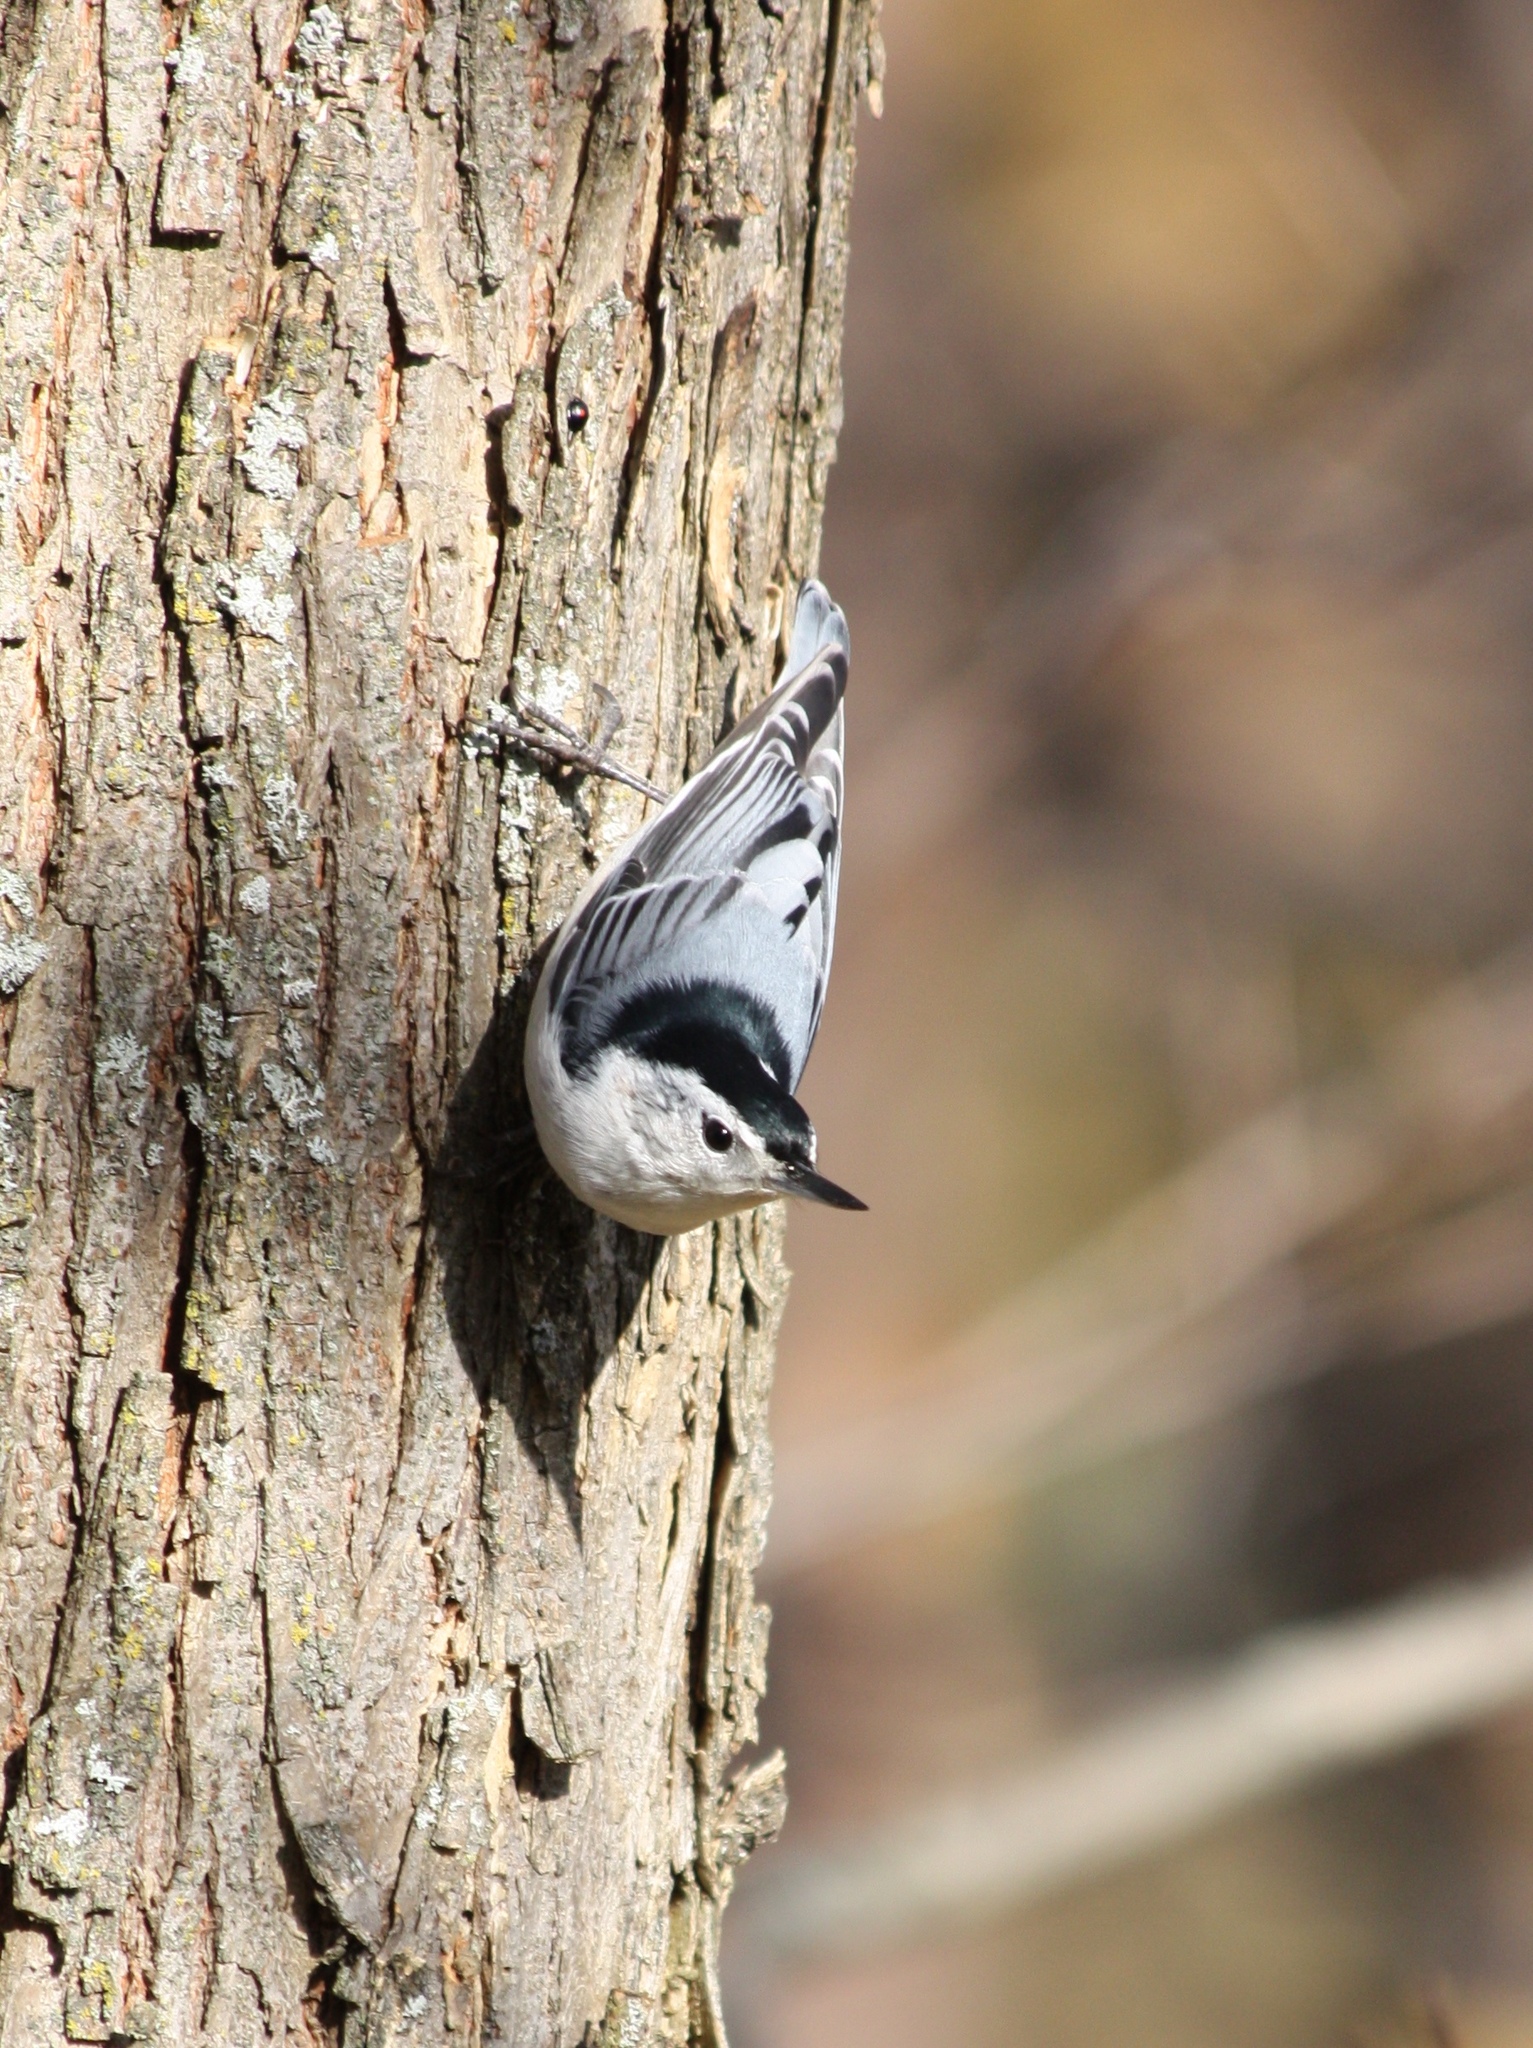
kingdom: Animalia
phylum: Chordata
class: Aves
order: Passeriformes
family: Sittidae
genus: Sitta
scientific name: Sitta carolinensis
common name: White-breasted nuthatch
